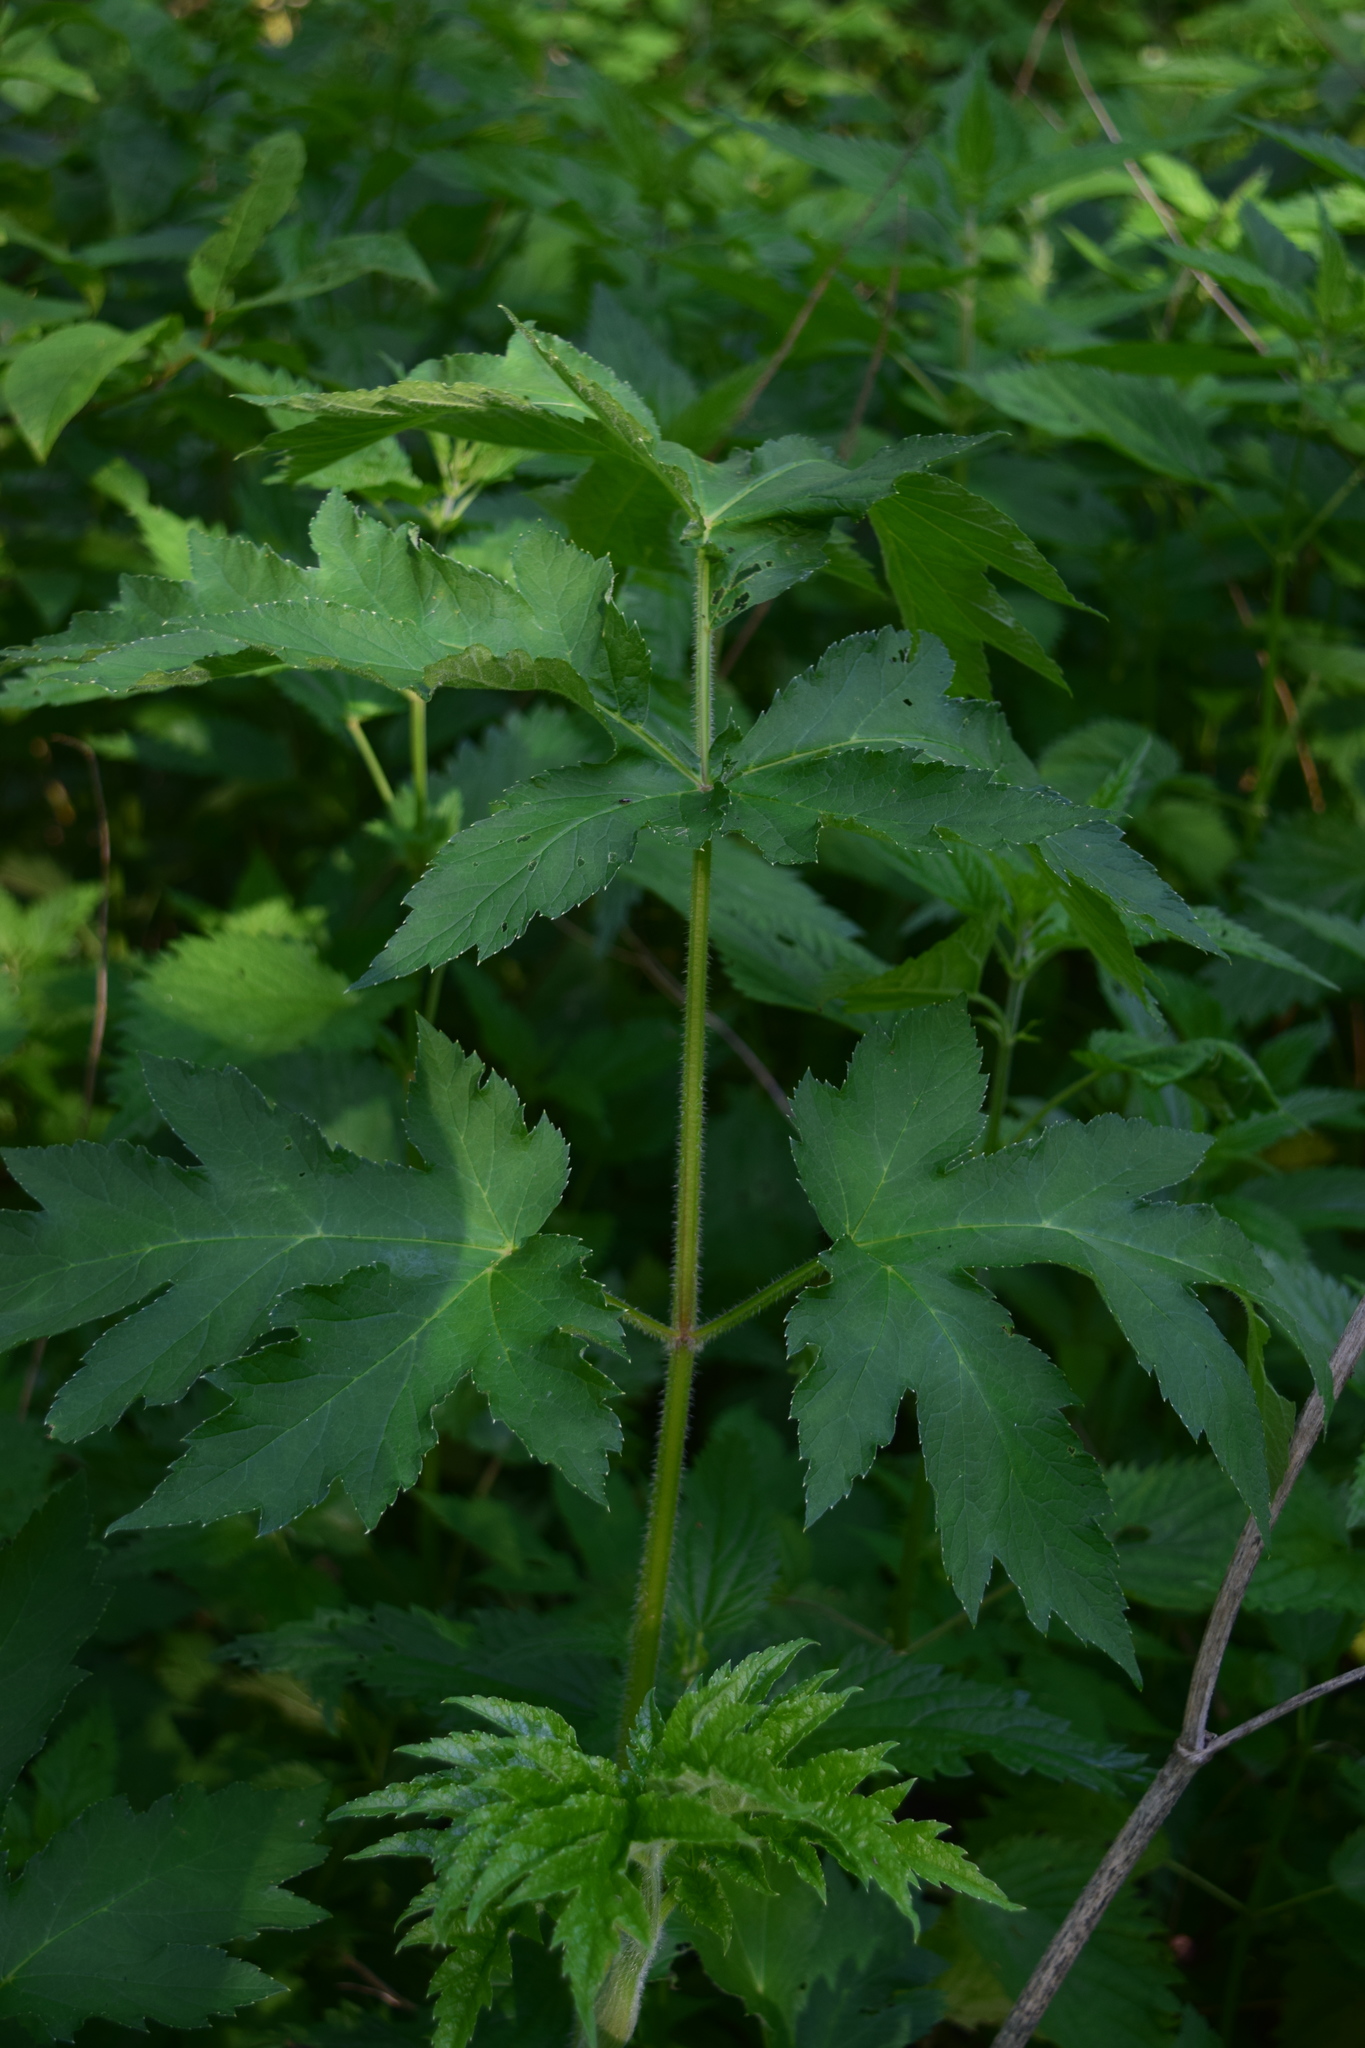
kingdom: Plantae
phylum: Tracheophyta
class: Magnoliopsida
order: Apiales
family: Apiaceae
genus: Heracleum
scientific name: Heracleum sphondylium
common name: Hogweed
